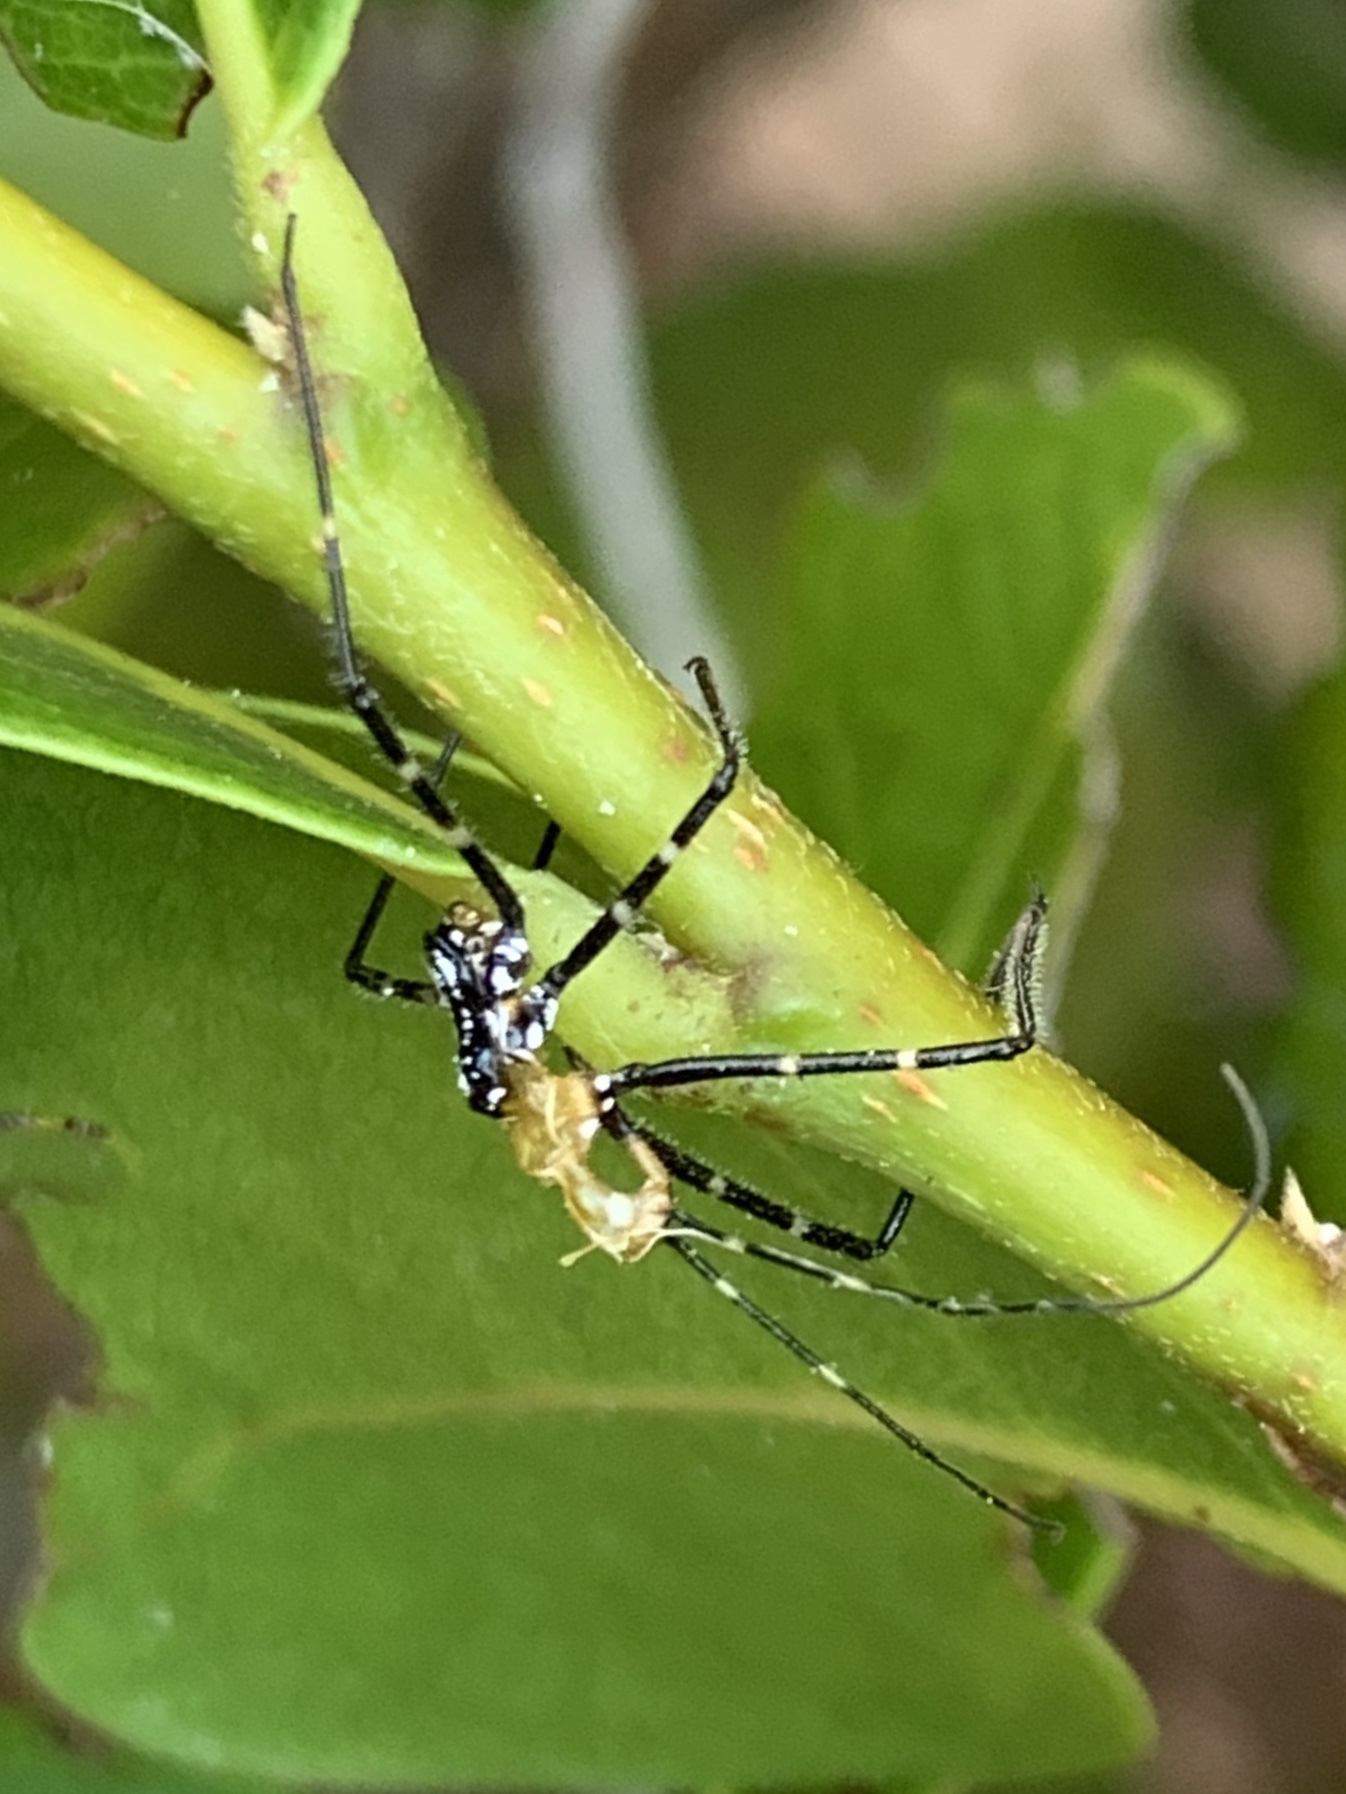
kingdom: Animalia
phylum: Arthropoda
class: Insecta
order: Hemiptera
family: Reduviidae
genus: Zelus
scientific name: Zelus longipes
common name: Milkweed assassin bug
